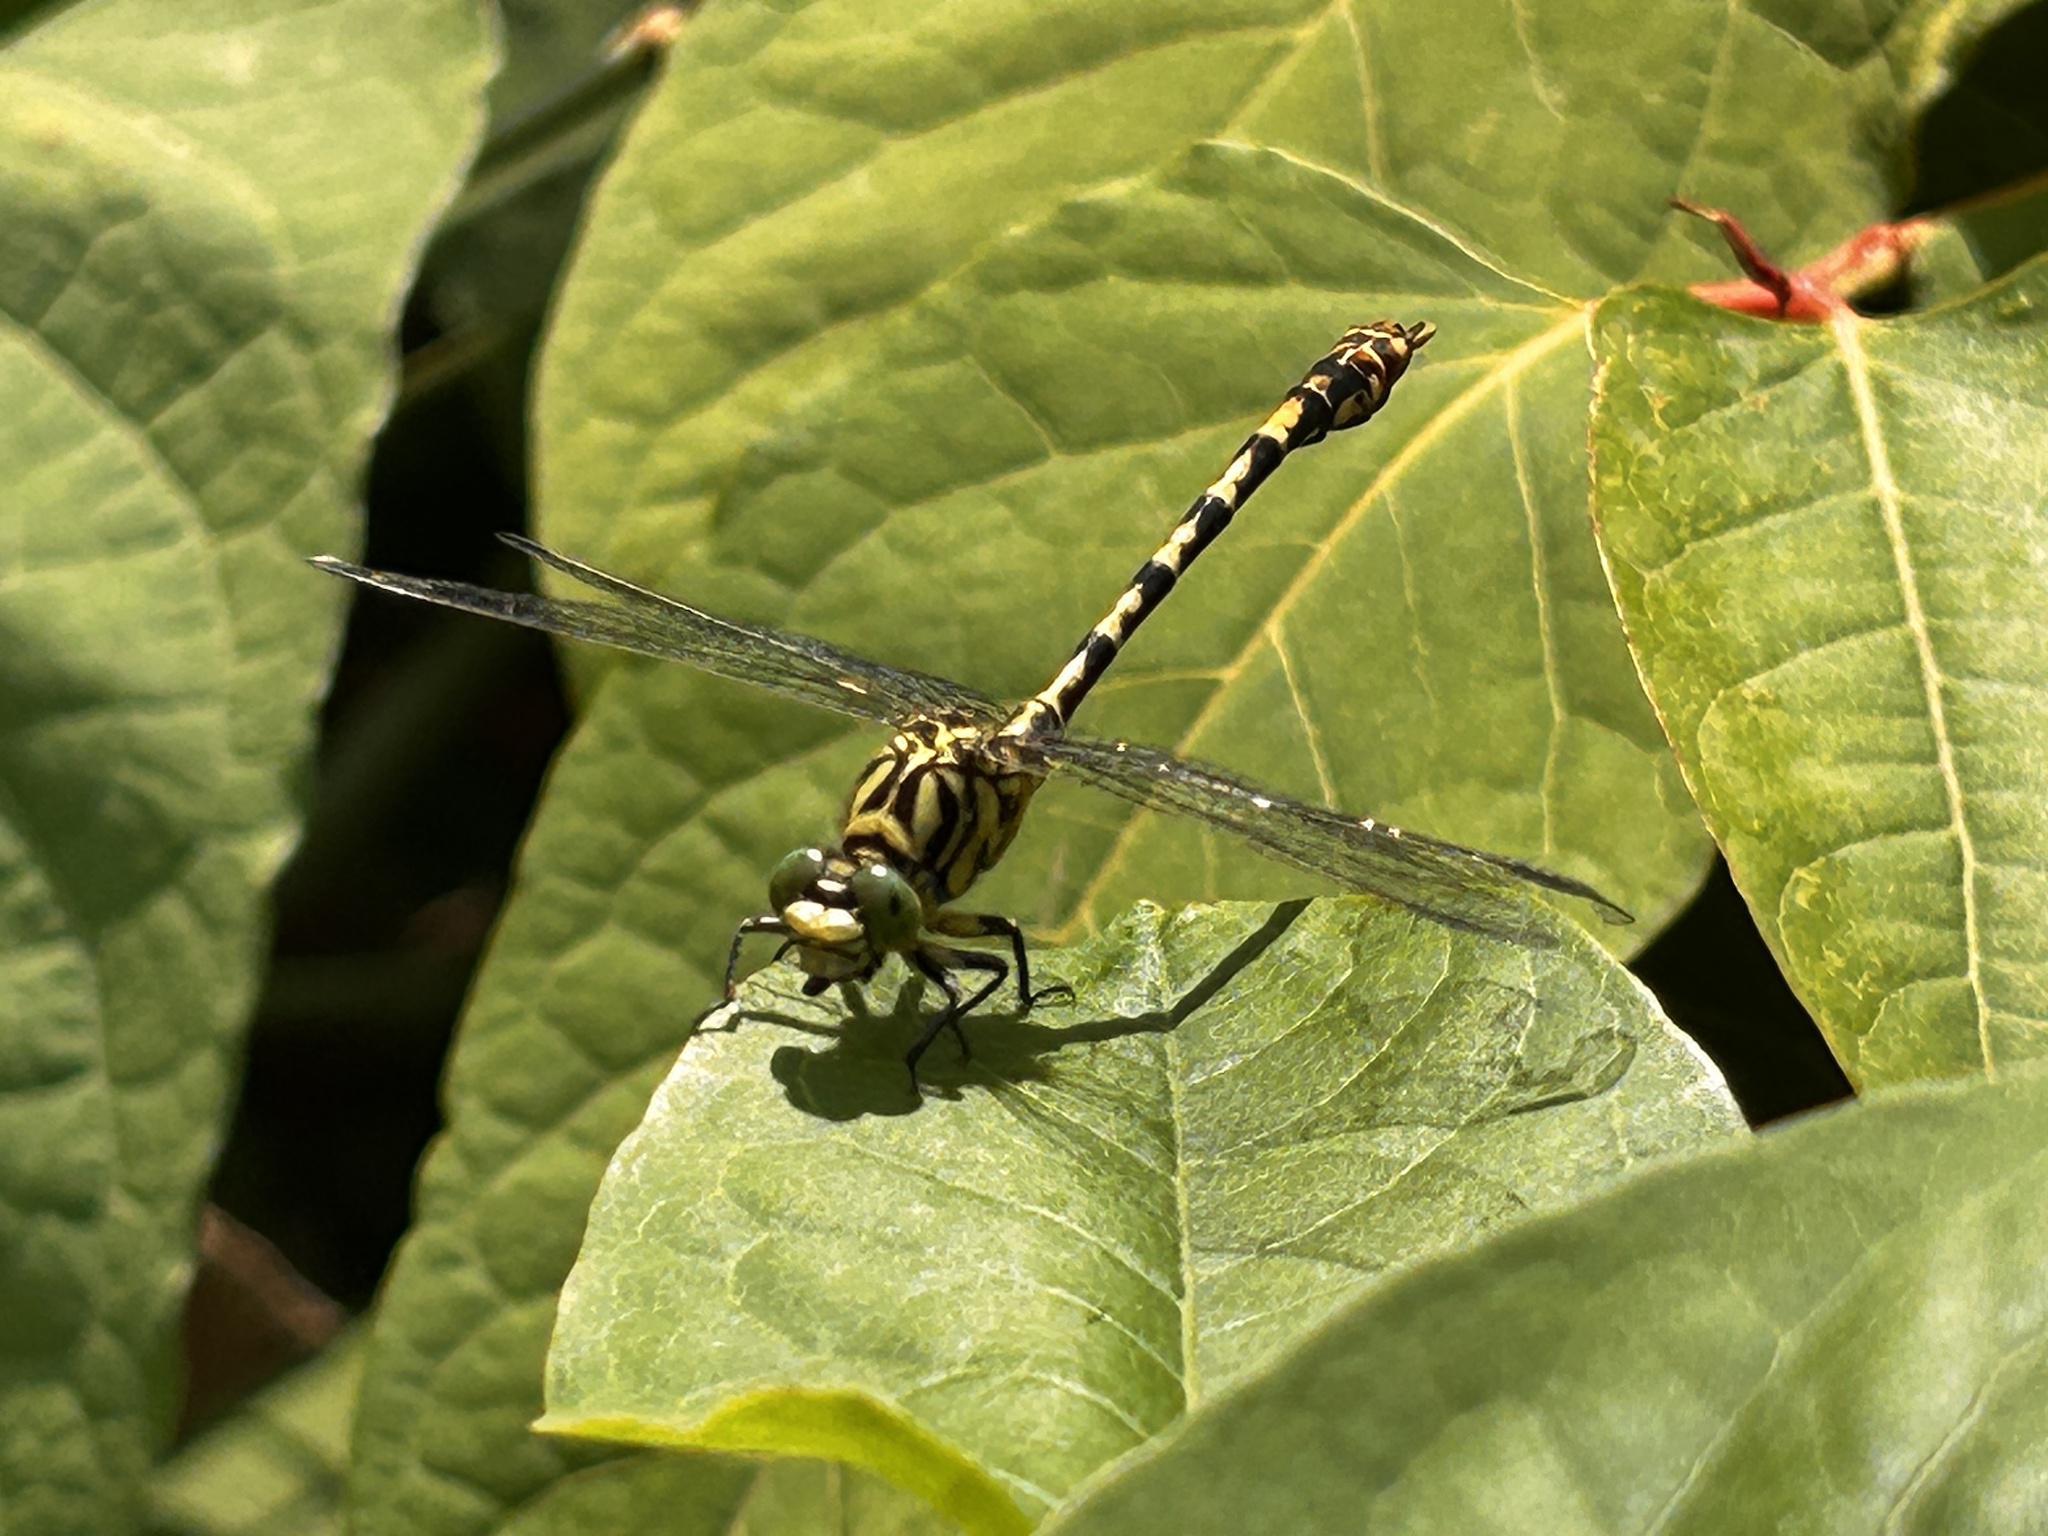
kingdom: Animalia
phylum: Arthropoda
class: Insecta
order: Odonata
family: Gomphidae
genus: Onychogomphus
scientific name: Onychogomphus forcipatus
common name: Small pincertail
